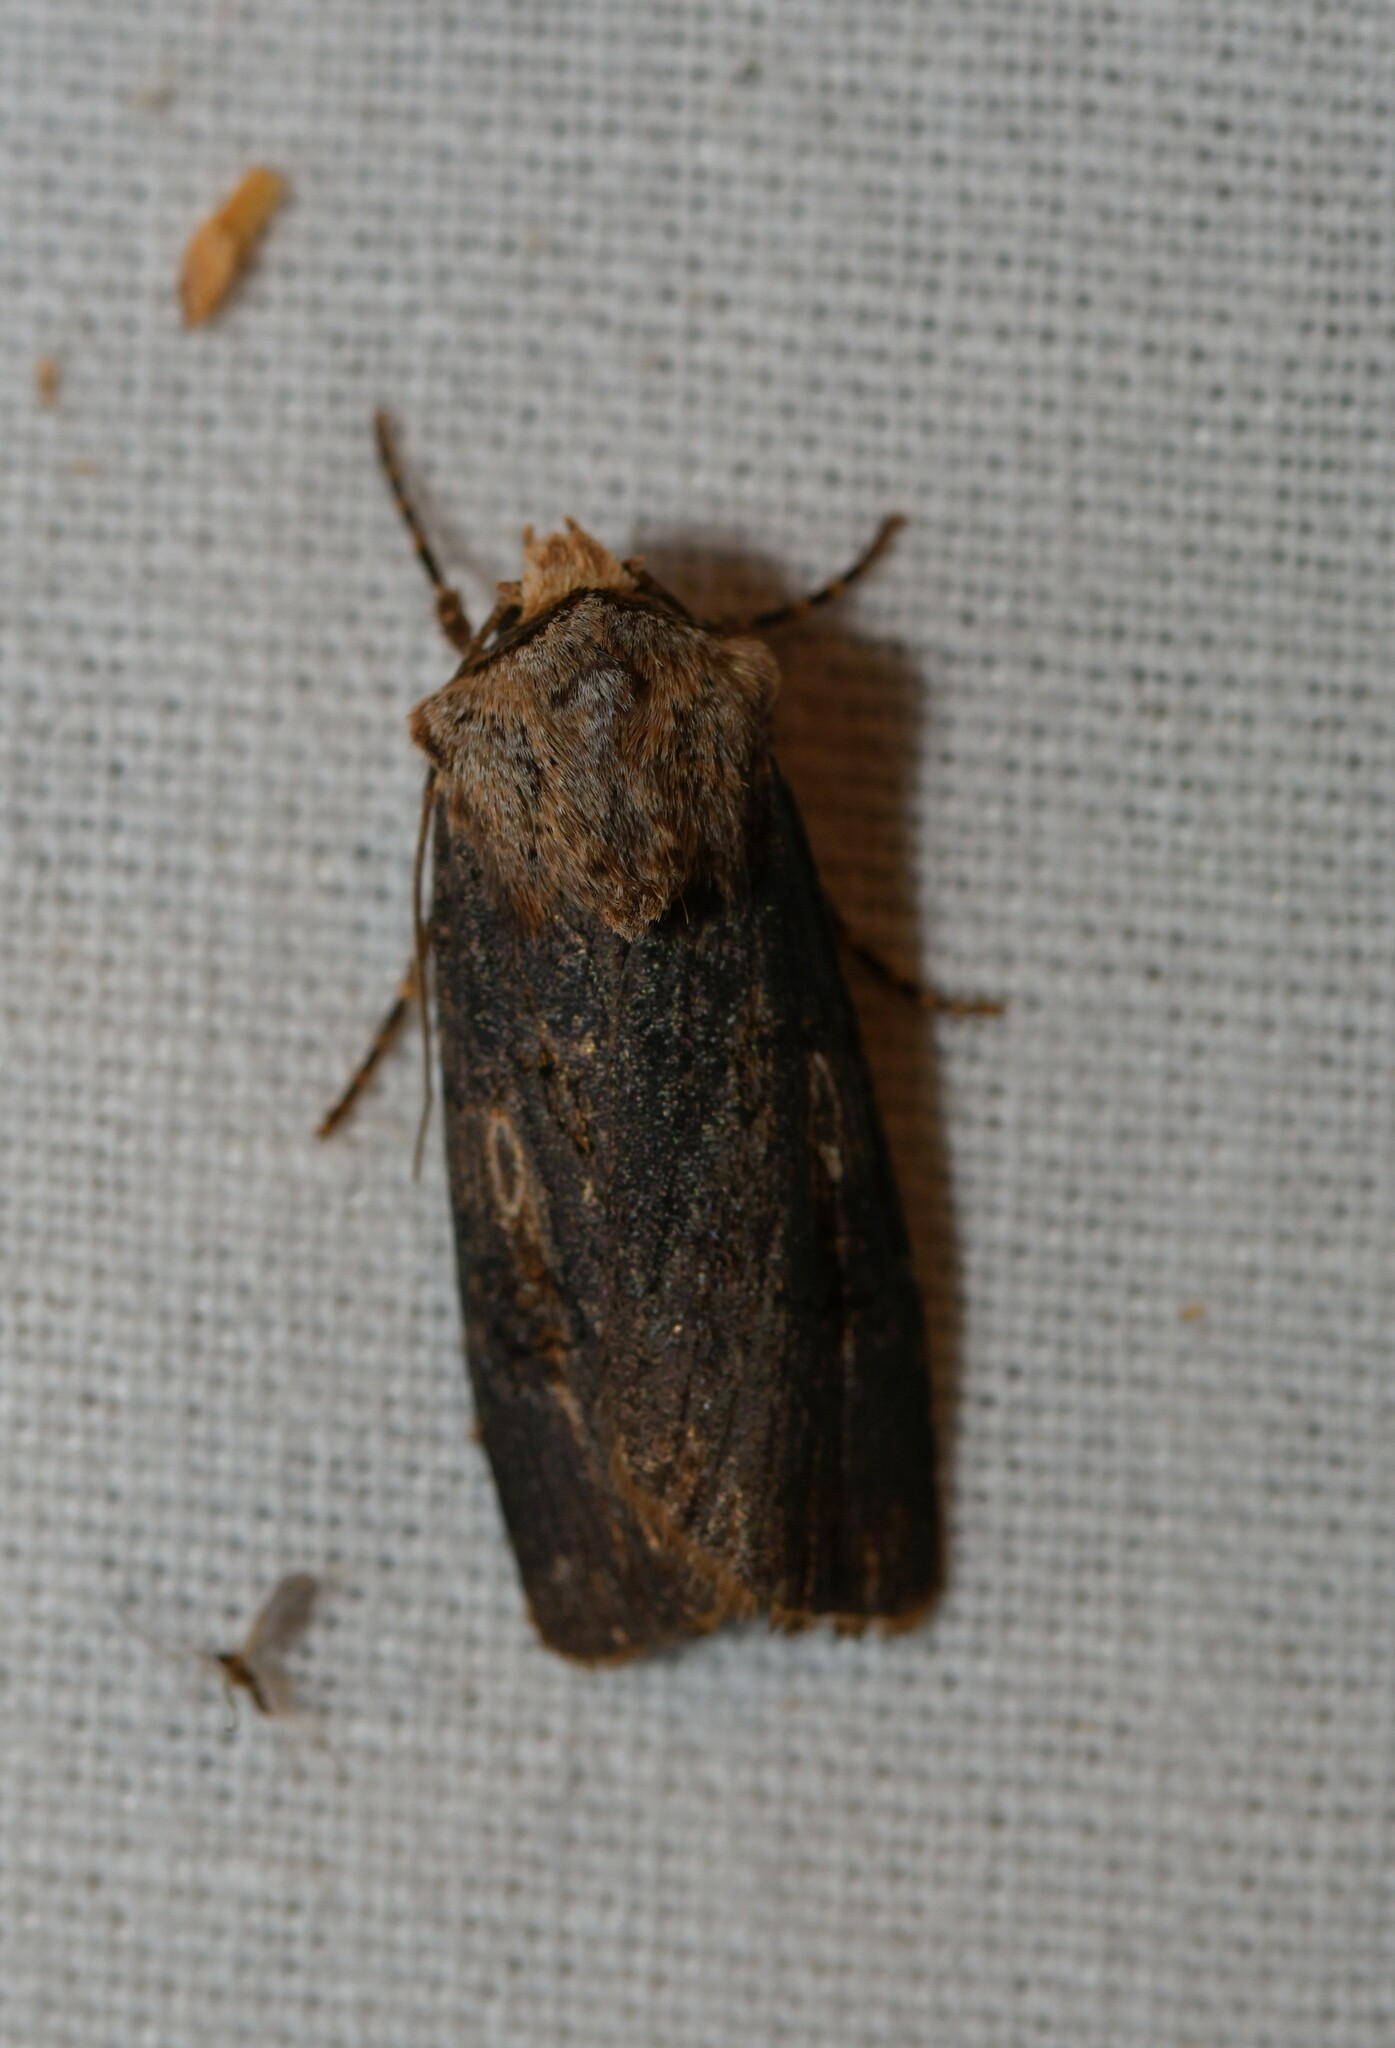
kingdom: Animalia
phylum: Arthropoda
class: Insecta
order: Lepidoptera
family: Noctuidae
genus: Agrotis
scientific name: Agrotis puta
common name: Shuttle-shaped dart
